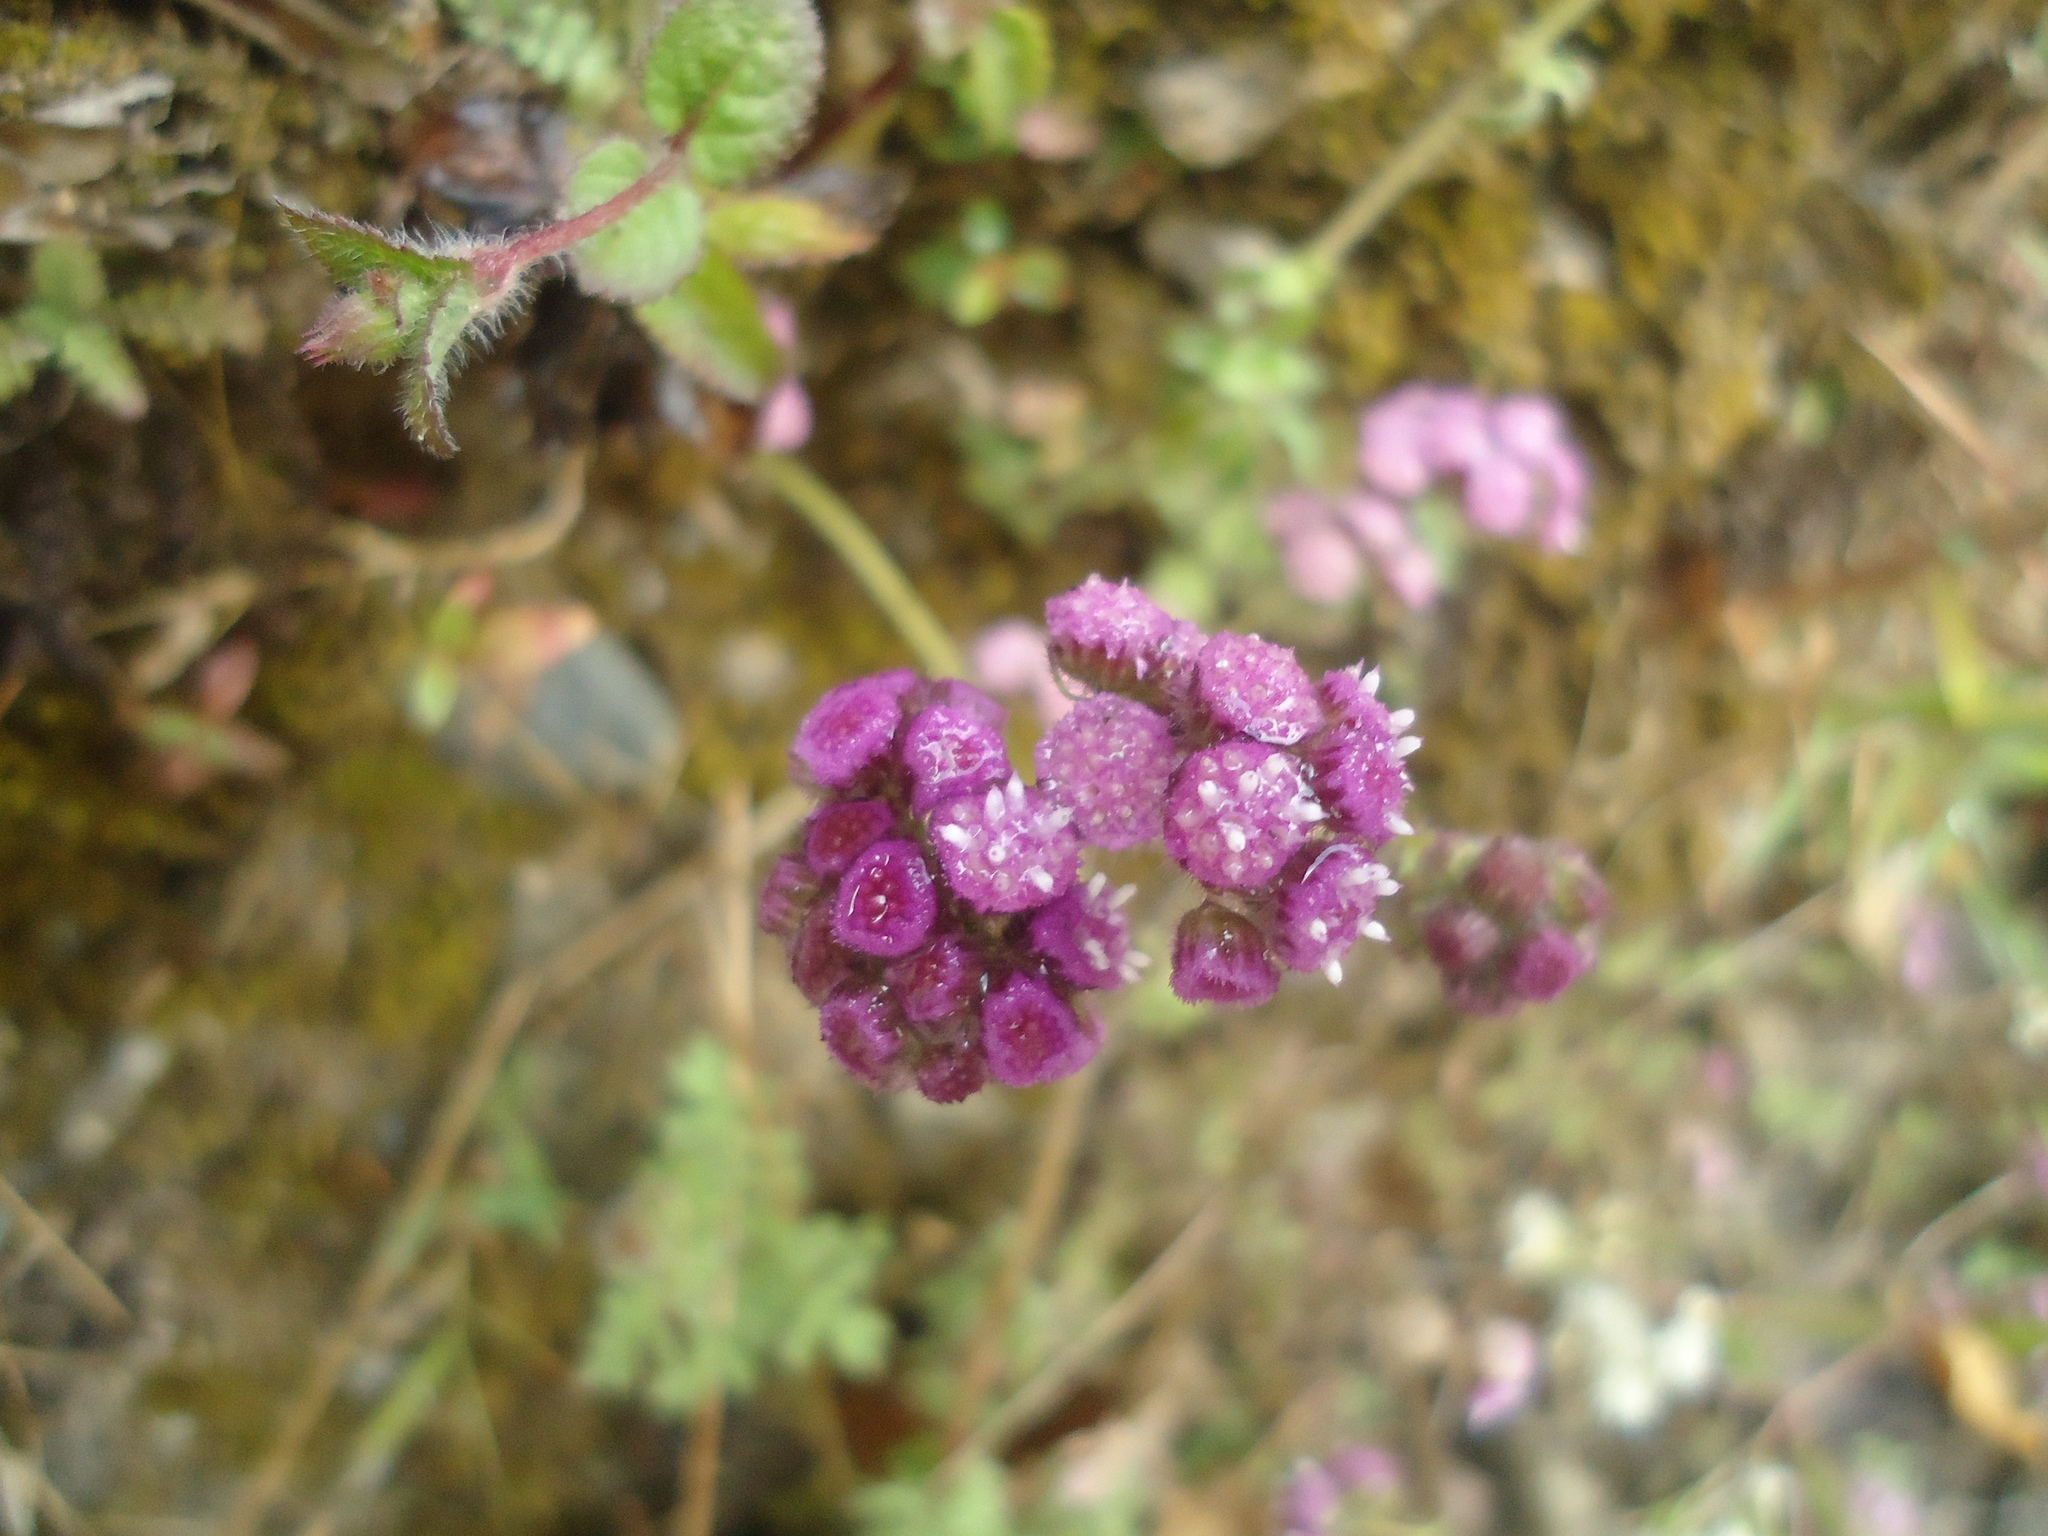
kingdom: Plantae
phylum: Tracheophyta
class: Magnoliopsida
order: Asterales
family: Asteraceae
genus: Cyathocline
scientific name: Cyathocline purpurea
